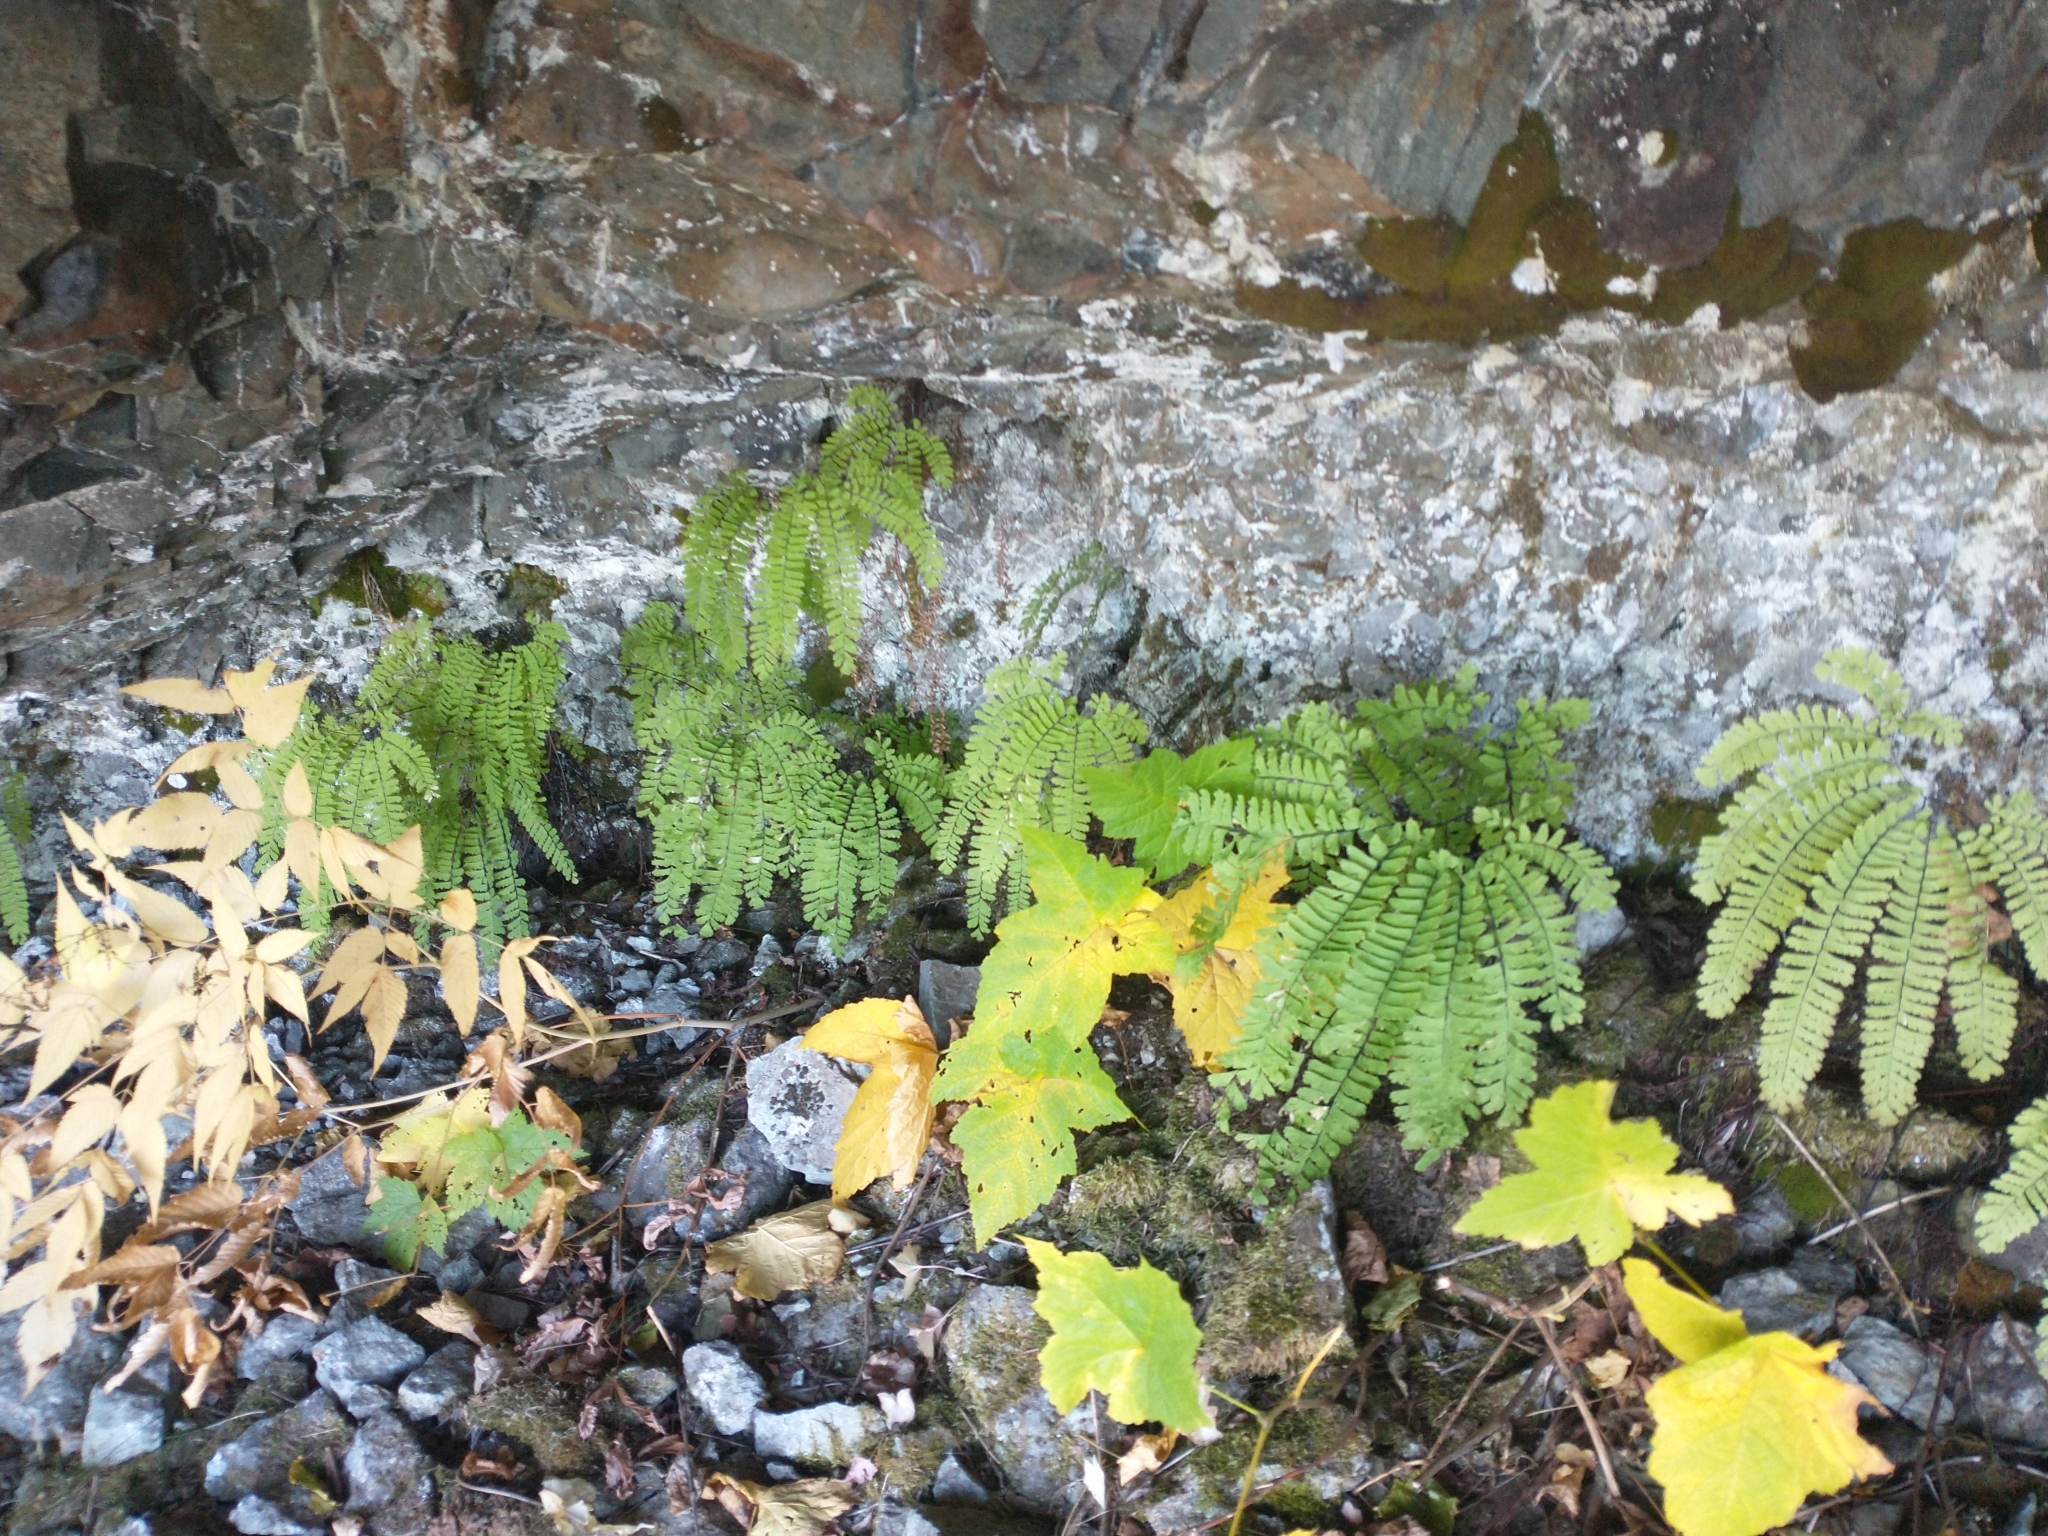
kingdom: Plantae
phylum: Tracheophyta
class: Polypodiopsida
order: Polypodiales
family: Pteridaceae
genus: Adiantum
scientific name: Adiantum aleuticum
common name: Aleutian maidenhair fern
